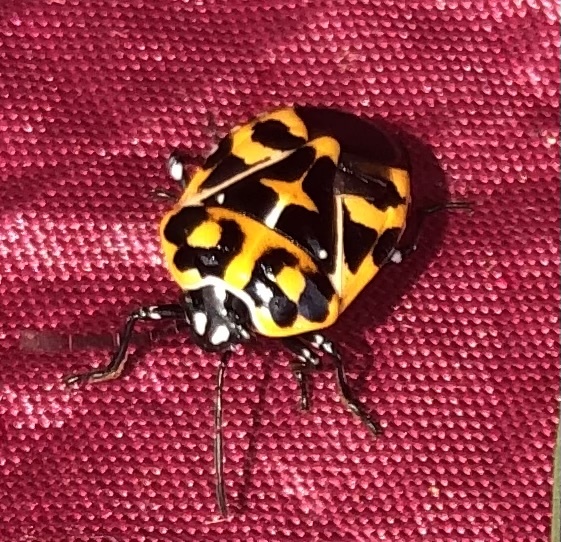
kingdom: Animalia
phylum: Arthropoda
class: Insecta
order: Hemiptera
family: Pentatomidae
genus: Murgantia
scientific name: Murgantia histrionica
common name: Harlequin bug
